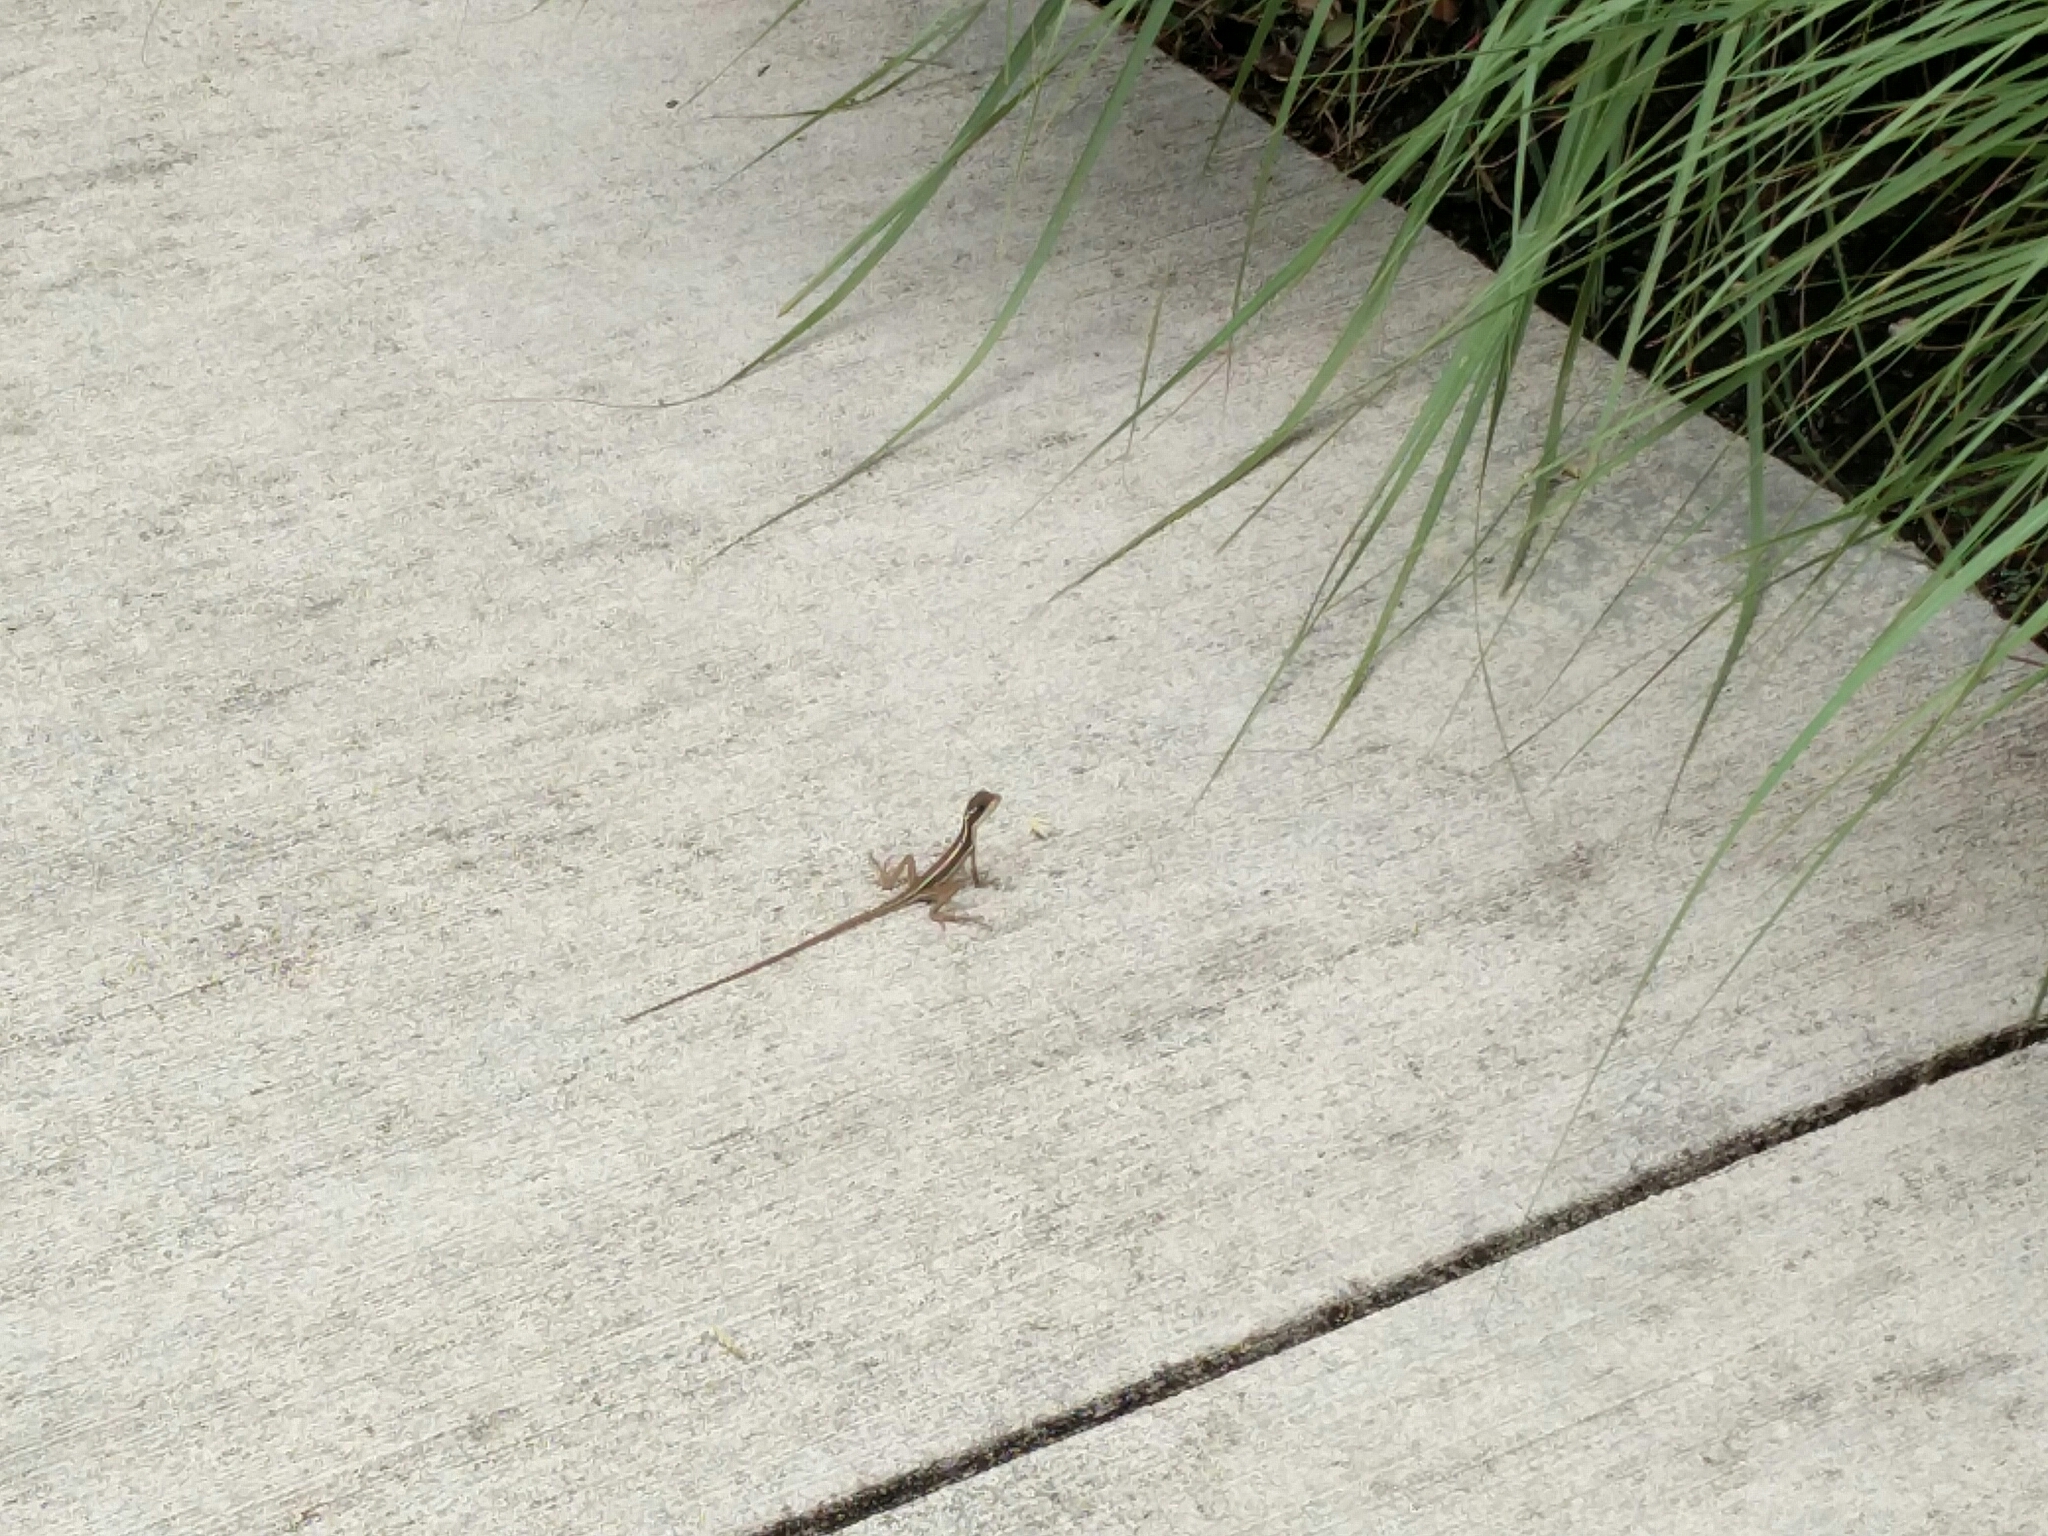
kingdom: Animalia
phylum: Chordata
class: Squamata
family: Corytophanidae
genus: Basiliscus
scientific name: Basiliscus vittatus
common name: Brown basilisk
